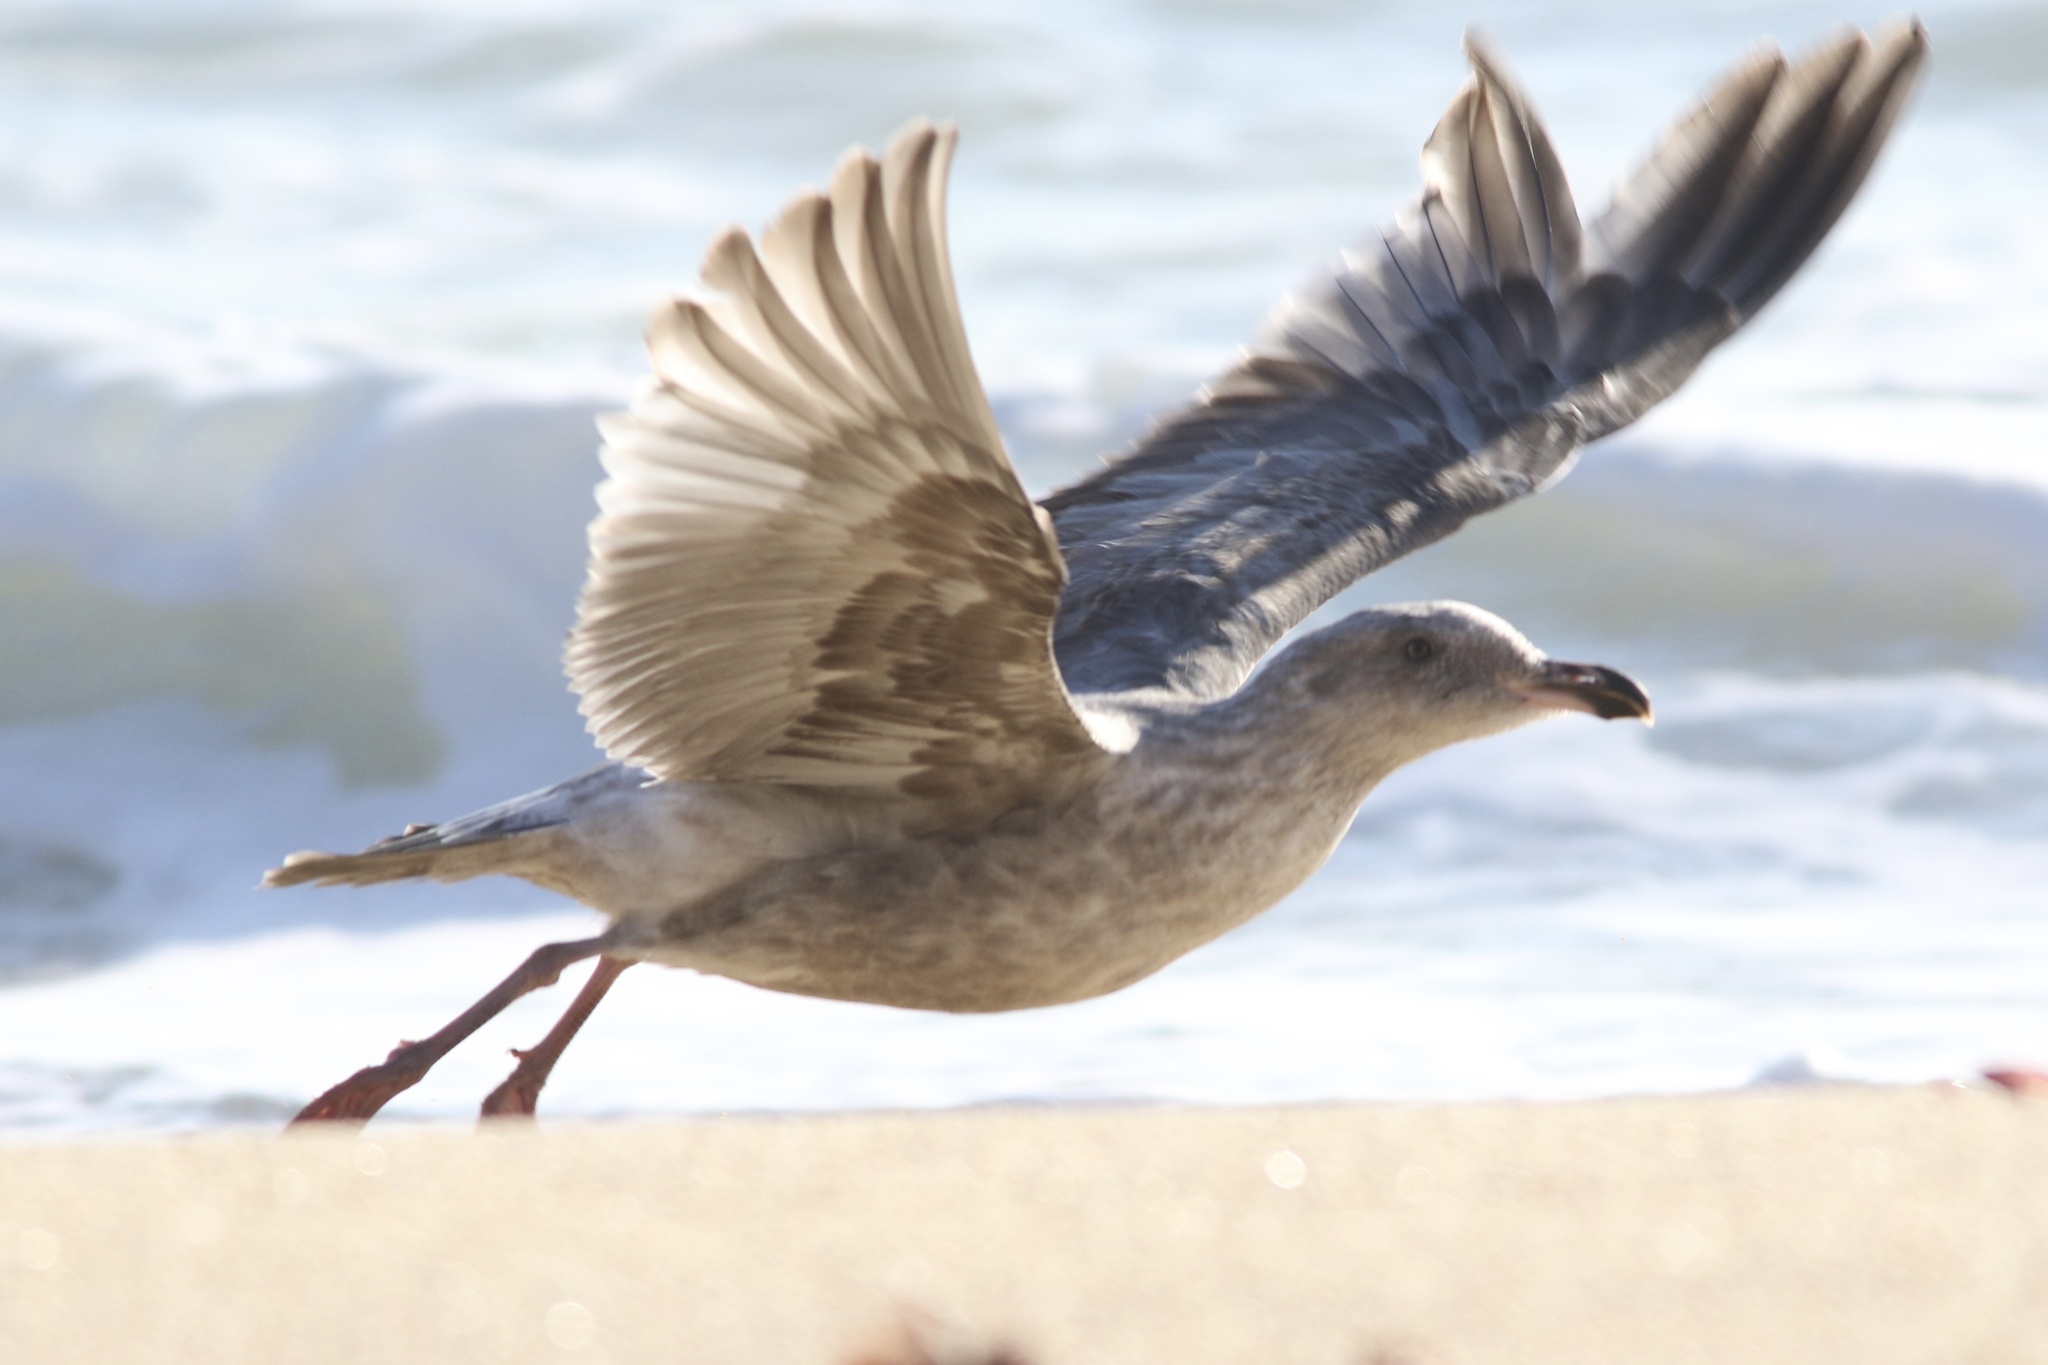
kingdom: Animalia
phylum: Chordata
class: Aves
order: Charadriiformes
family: Laridae
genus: Larus
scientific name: Larus occidentalis
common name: Western gull
